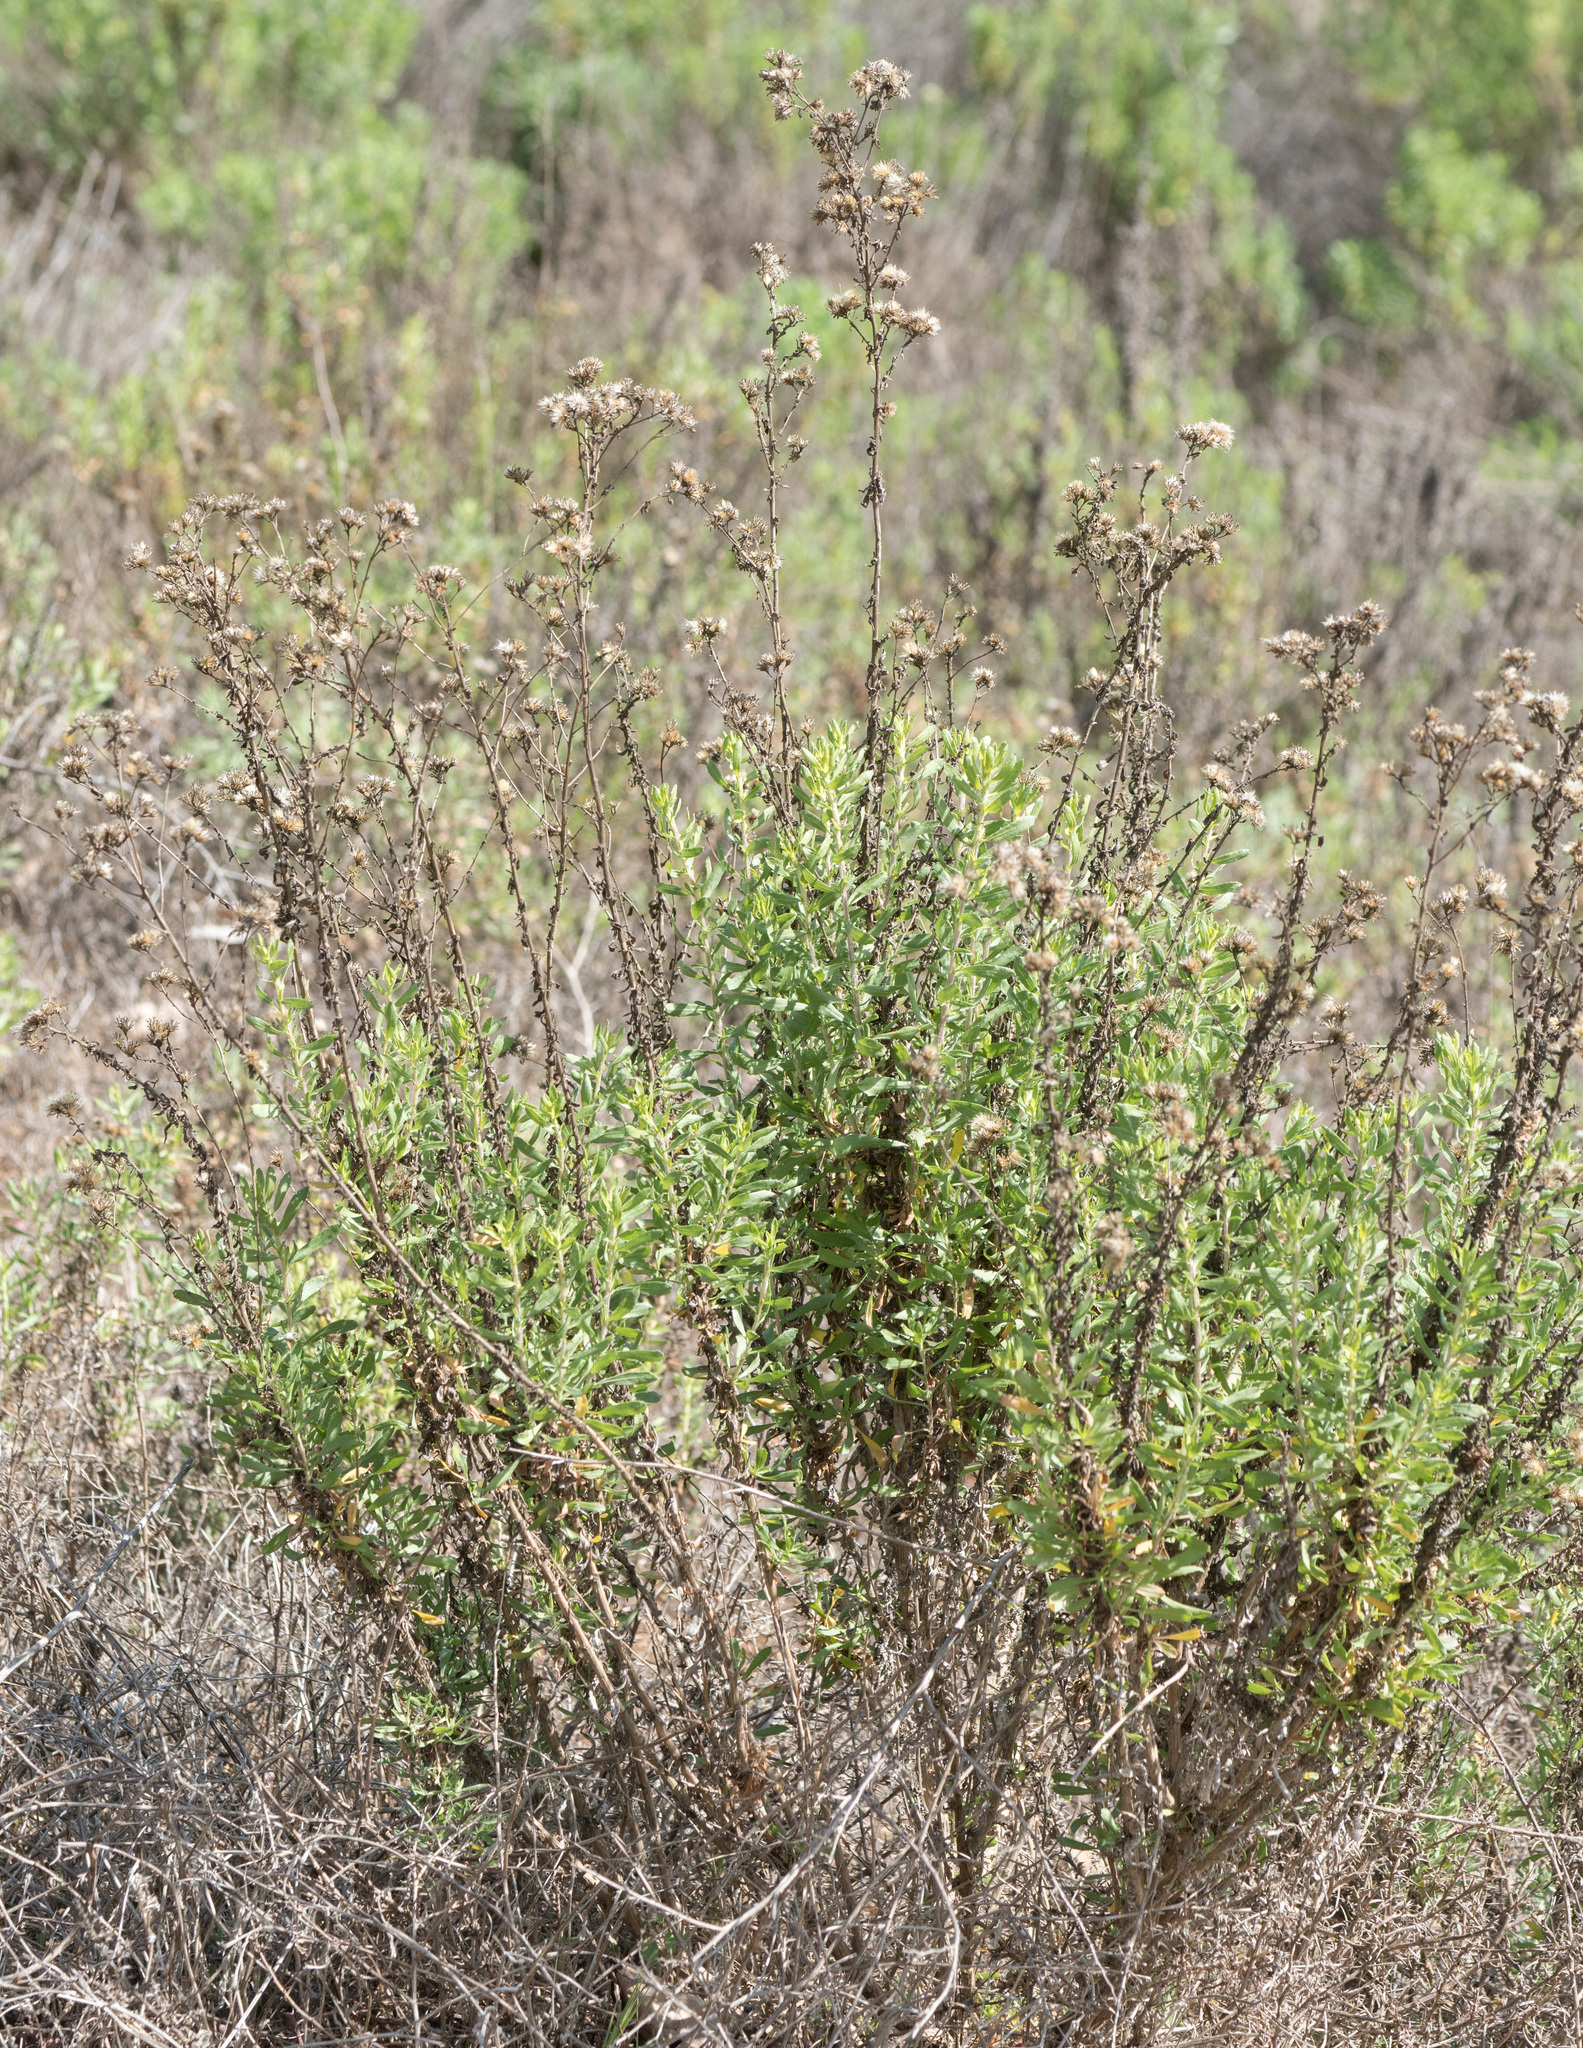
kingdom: Plantae
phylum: Tracheophyta
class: Magnoliopsida
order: Asterales
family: Asteraceae
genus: Isocoma
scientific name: Isocoma menziesii
